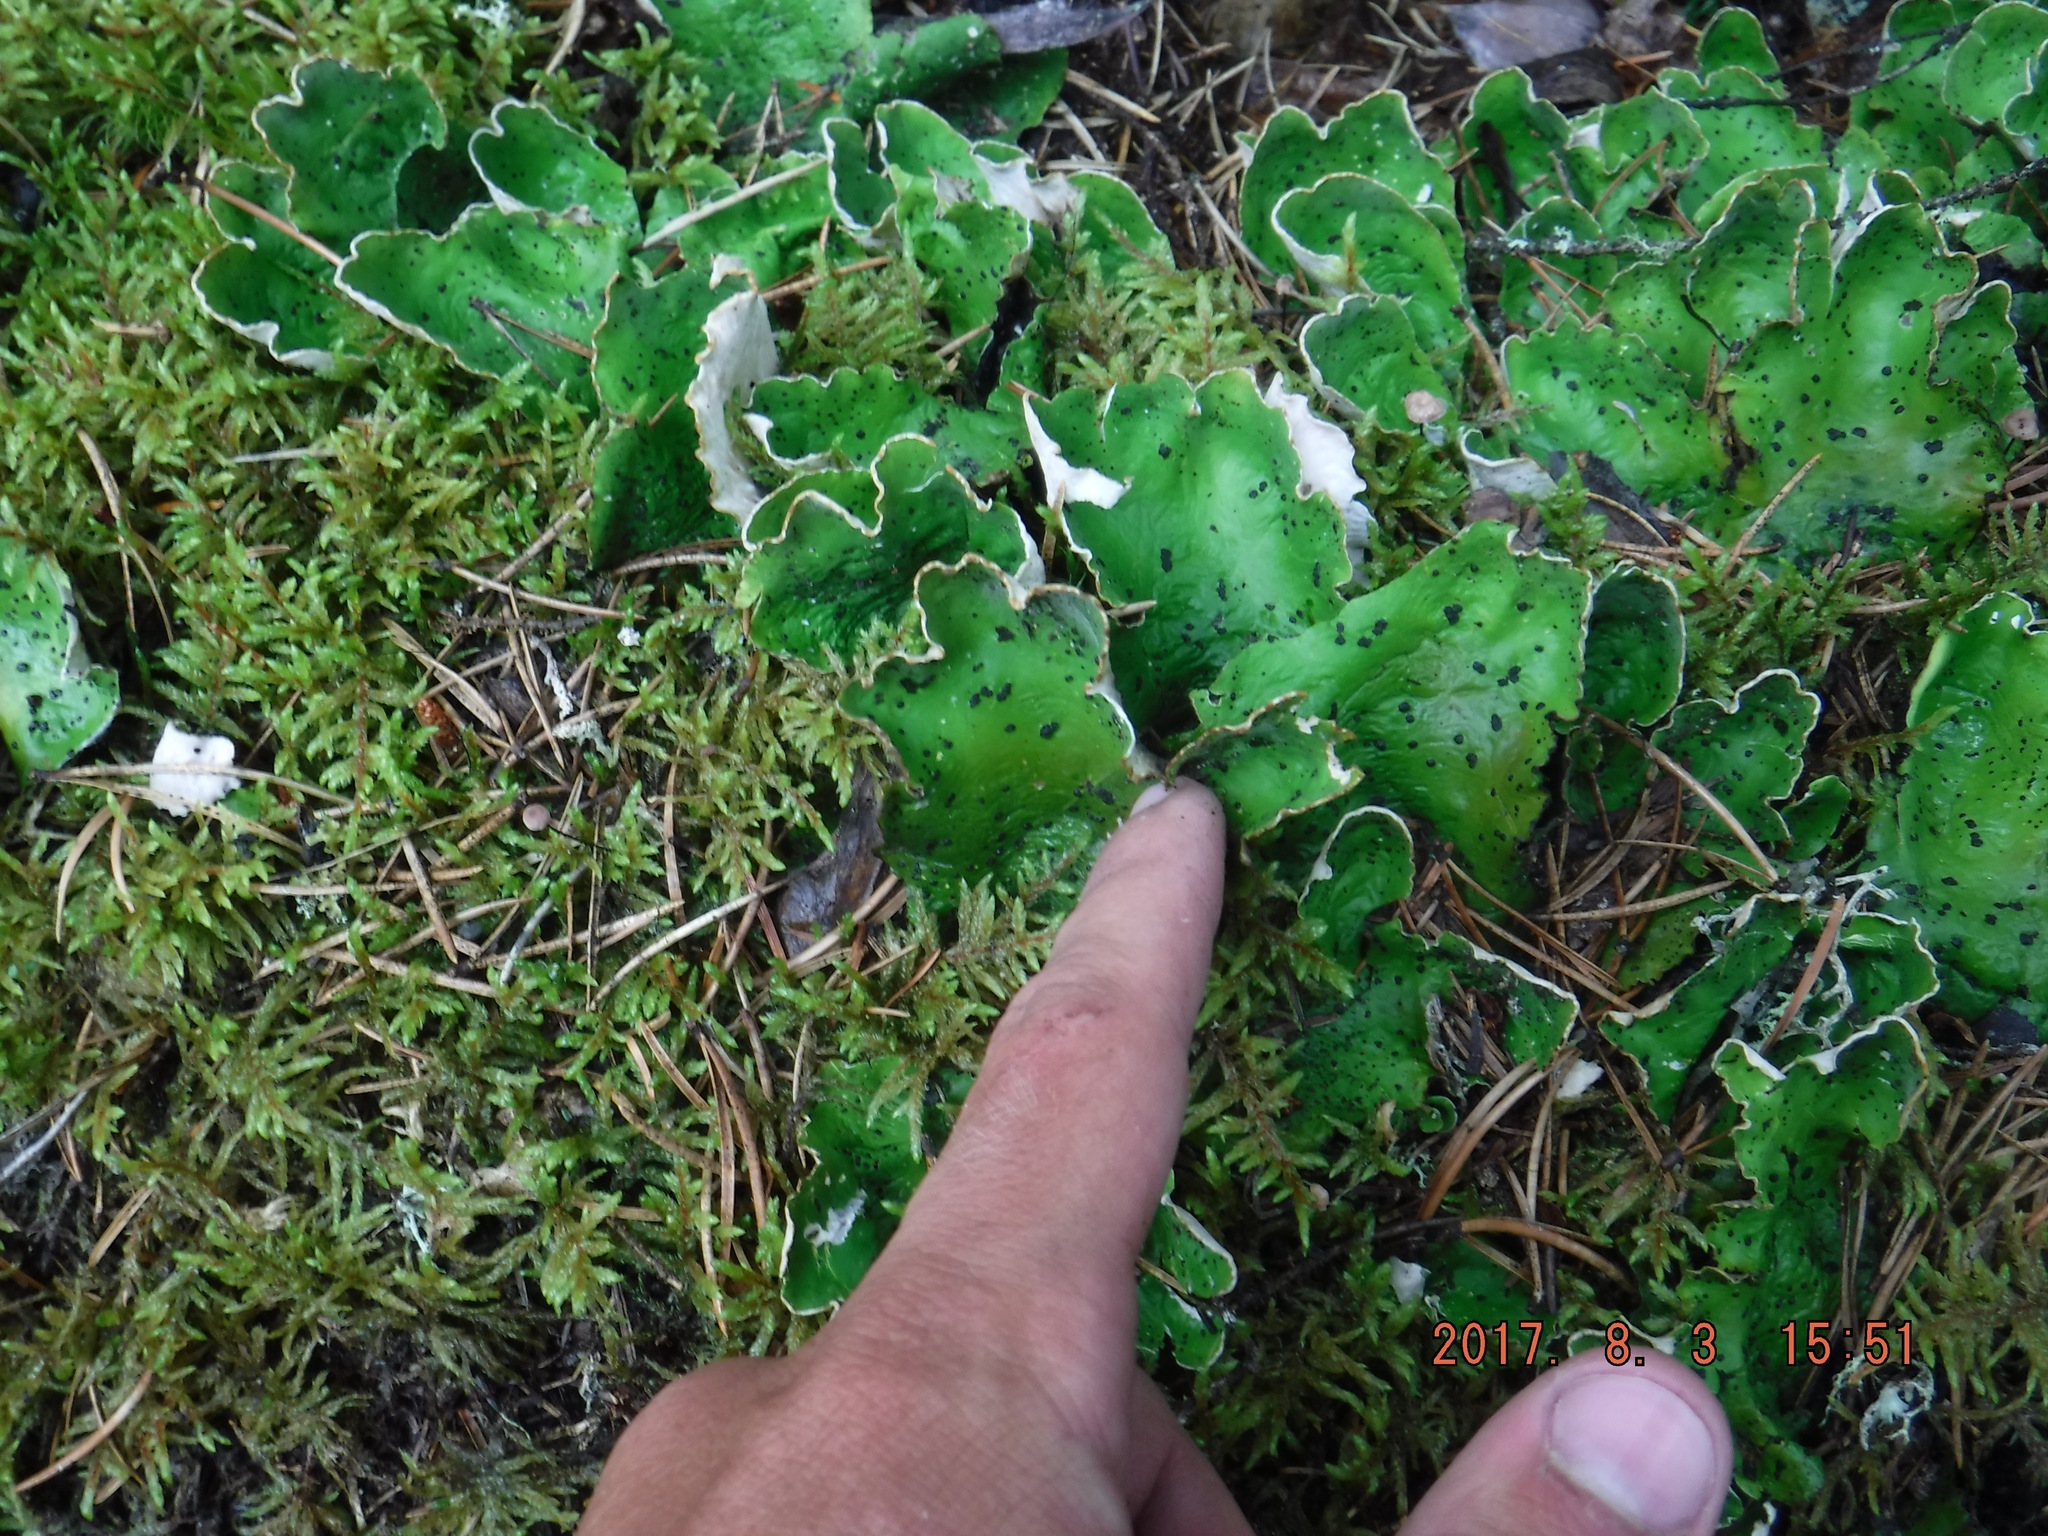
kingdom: Fungi
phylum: Ascomycota
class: Lecanoromycetes
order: Peltigerales
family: Peltigeraceae
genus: Peltigera
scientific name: Peltigera aphthosa
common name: Common freckle pelt lichen
